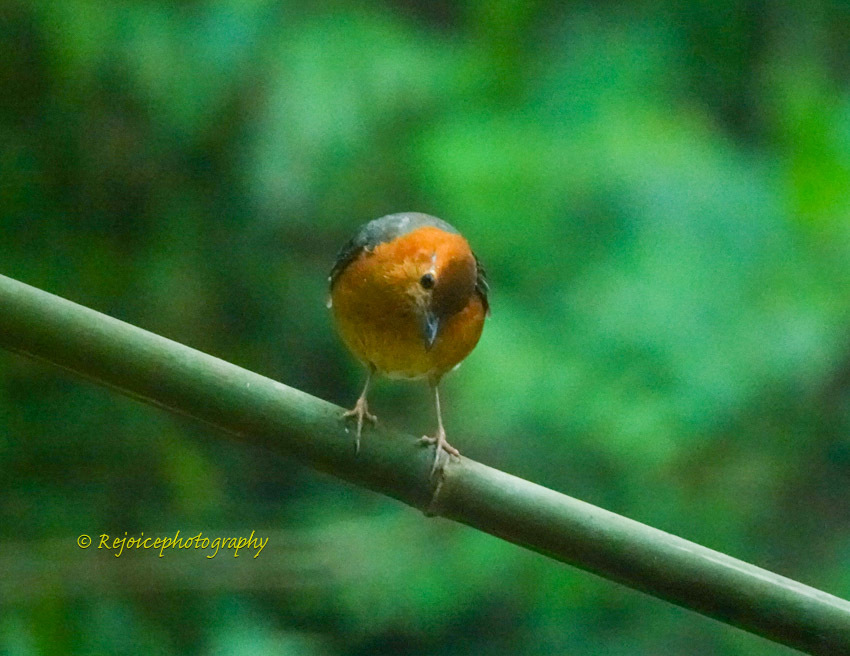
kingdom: Animalia
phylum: Chordata
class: Aves
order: Passeriformes
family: Turdidae
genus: Geokichla
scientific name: Geokichla citrina
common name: Orange-headed thrush
